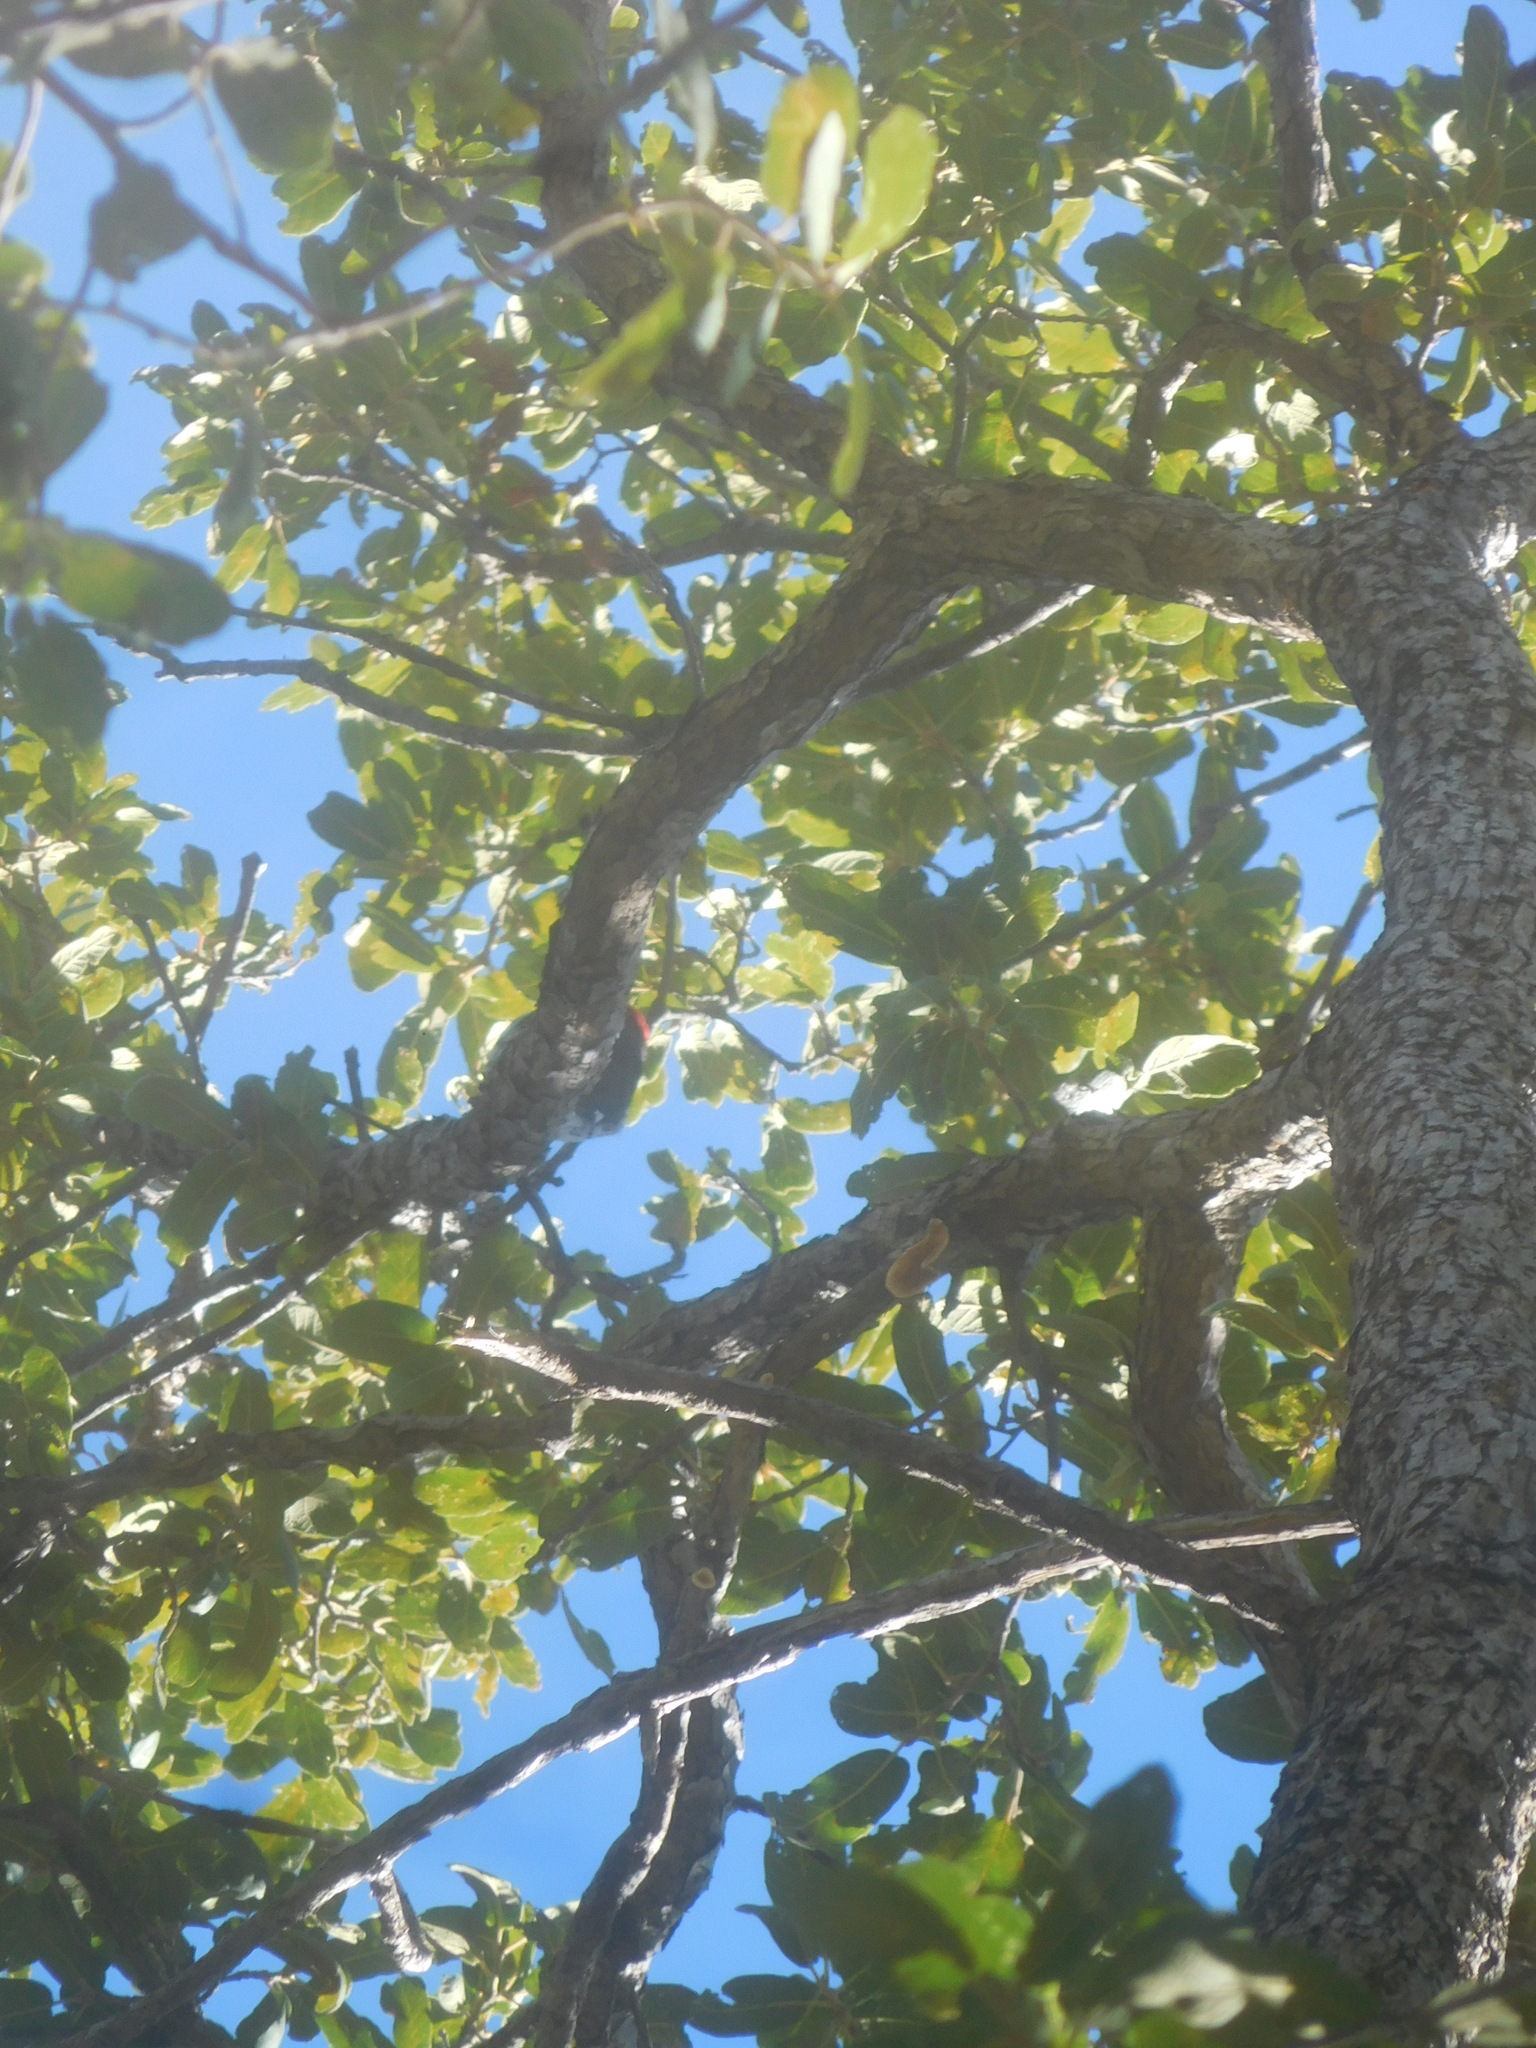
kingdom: Animalia
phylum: Chordata
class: Aves
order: Piciformes
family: Picidae
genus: Melanerpes
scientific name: Melanerpes formicivorus
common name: Acorn woodpecker
